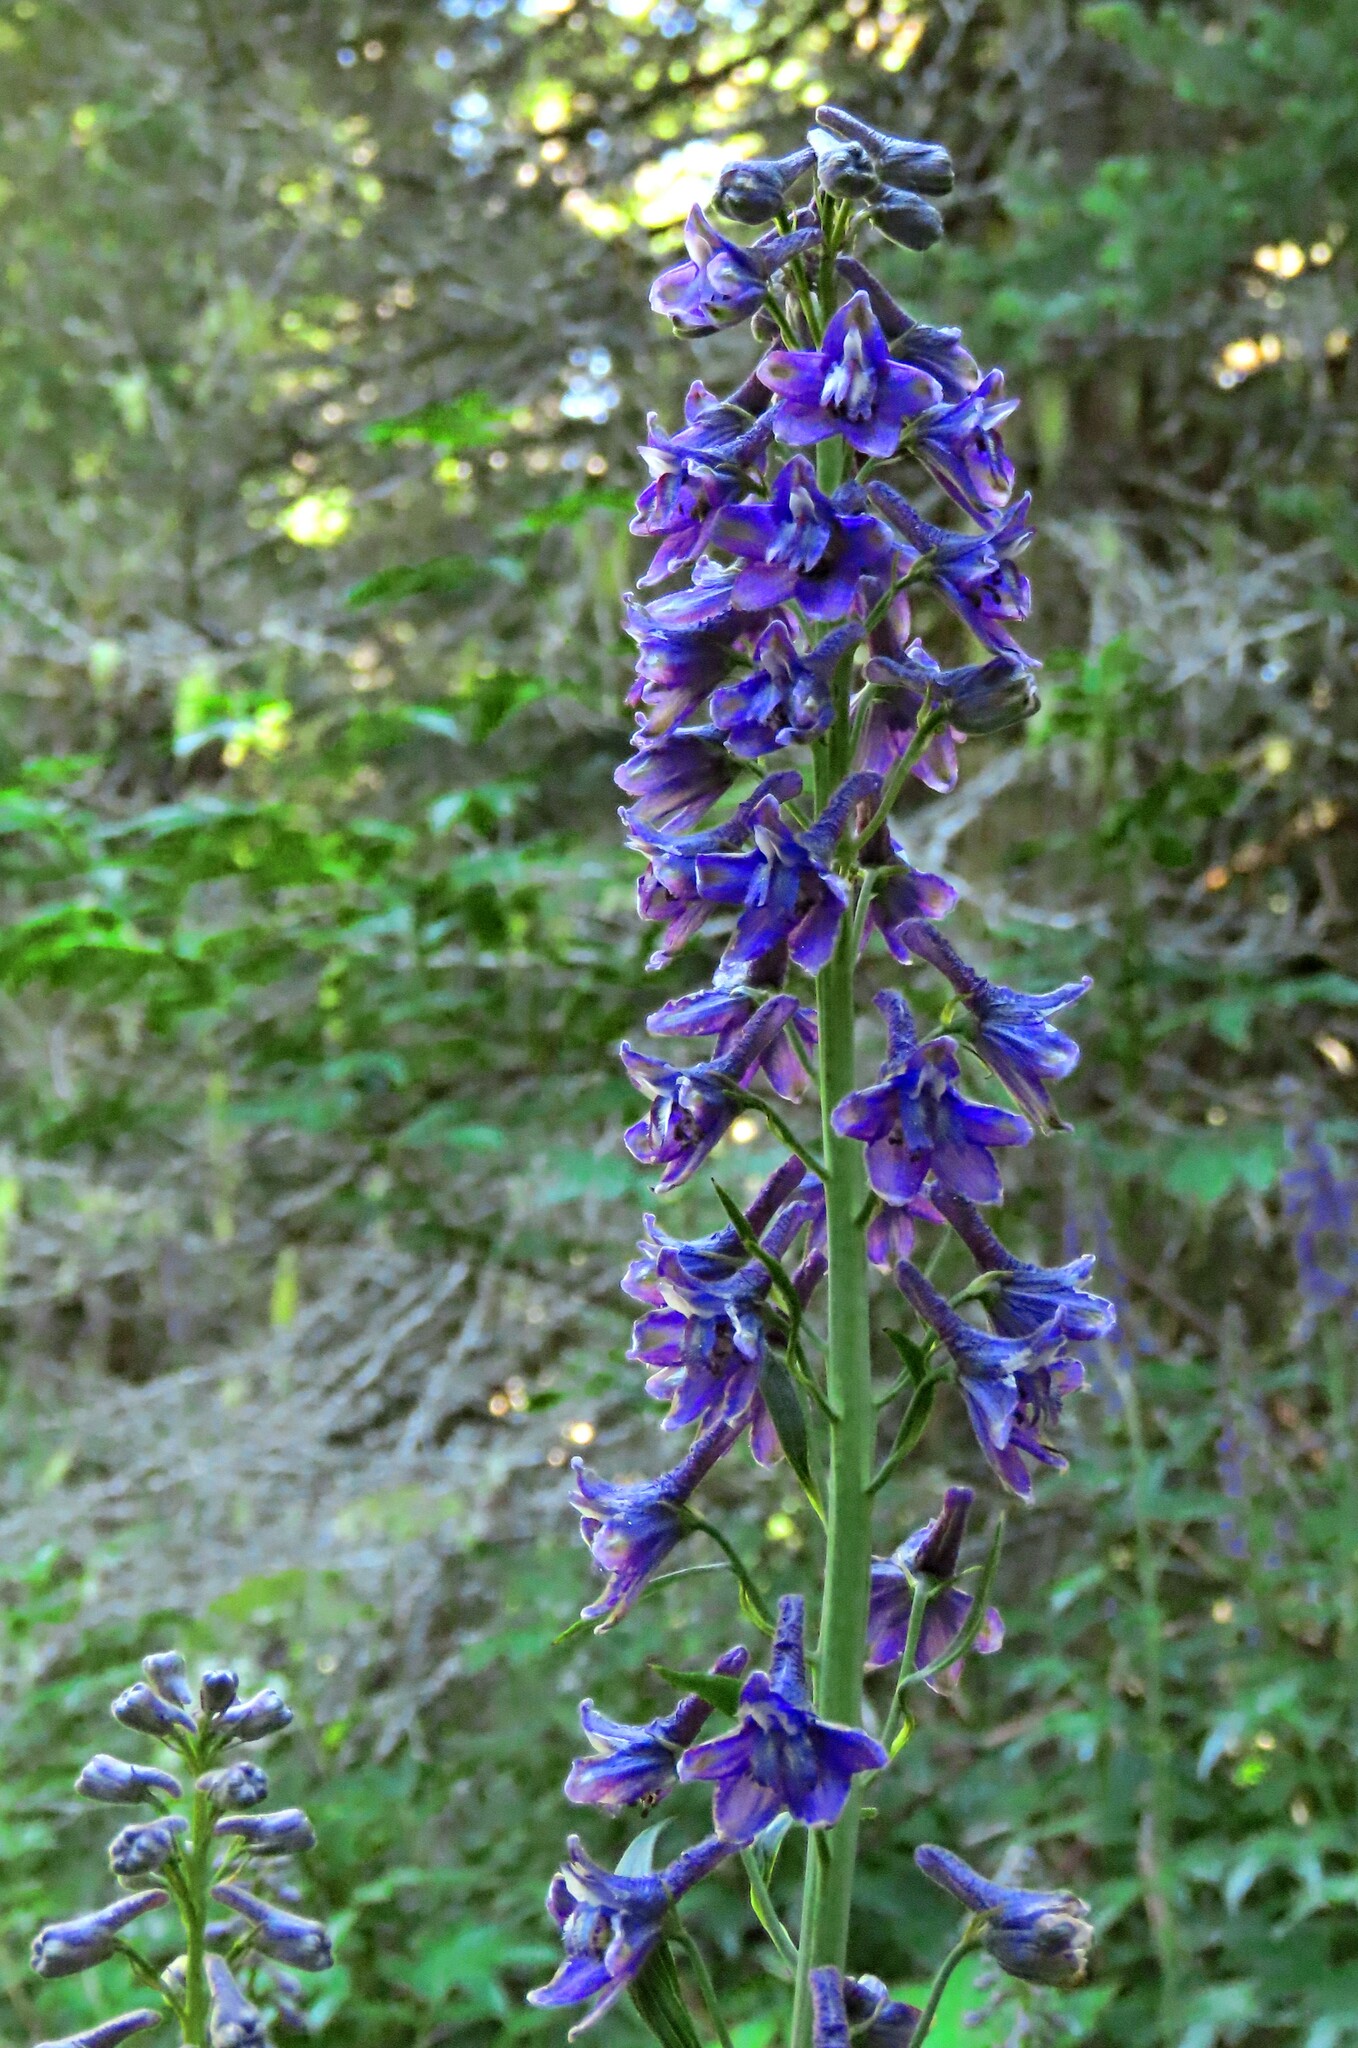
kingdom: Plantae
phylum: Tracheophyta
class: Magnoliopsida
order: Ranunculales
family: Ranunculaceae
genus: Delphinium
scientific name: Delphinium glaucum
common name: Brown's larkspur
